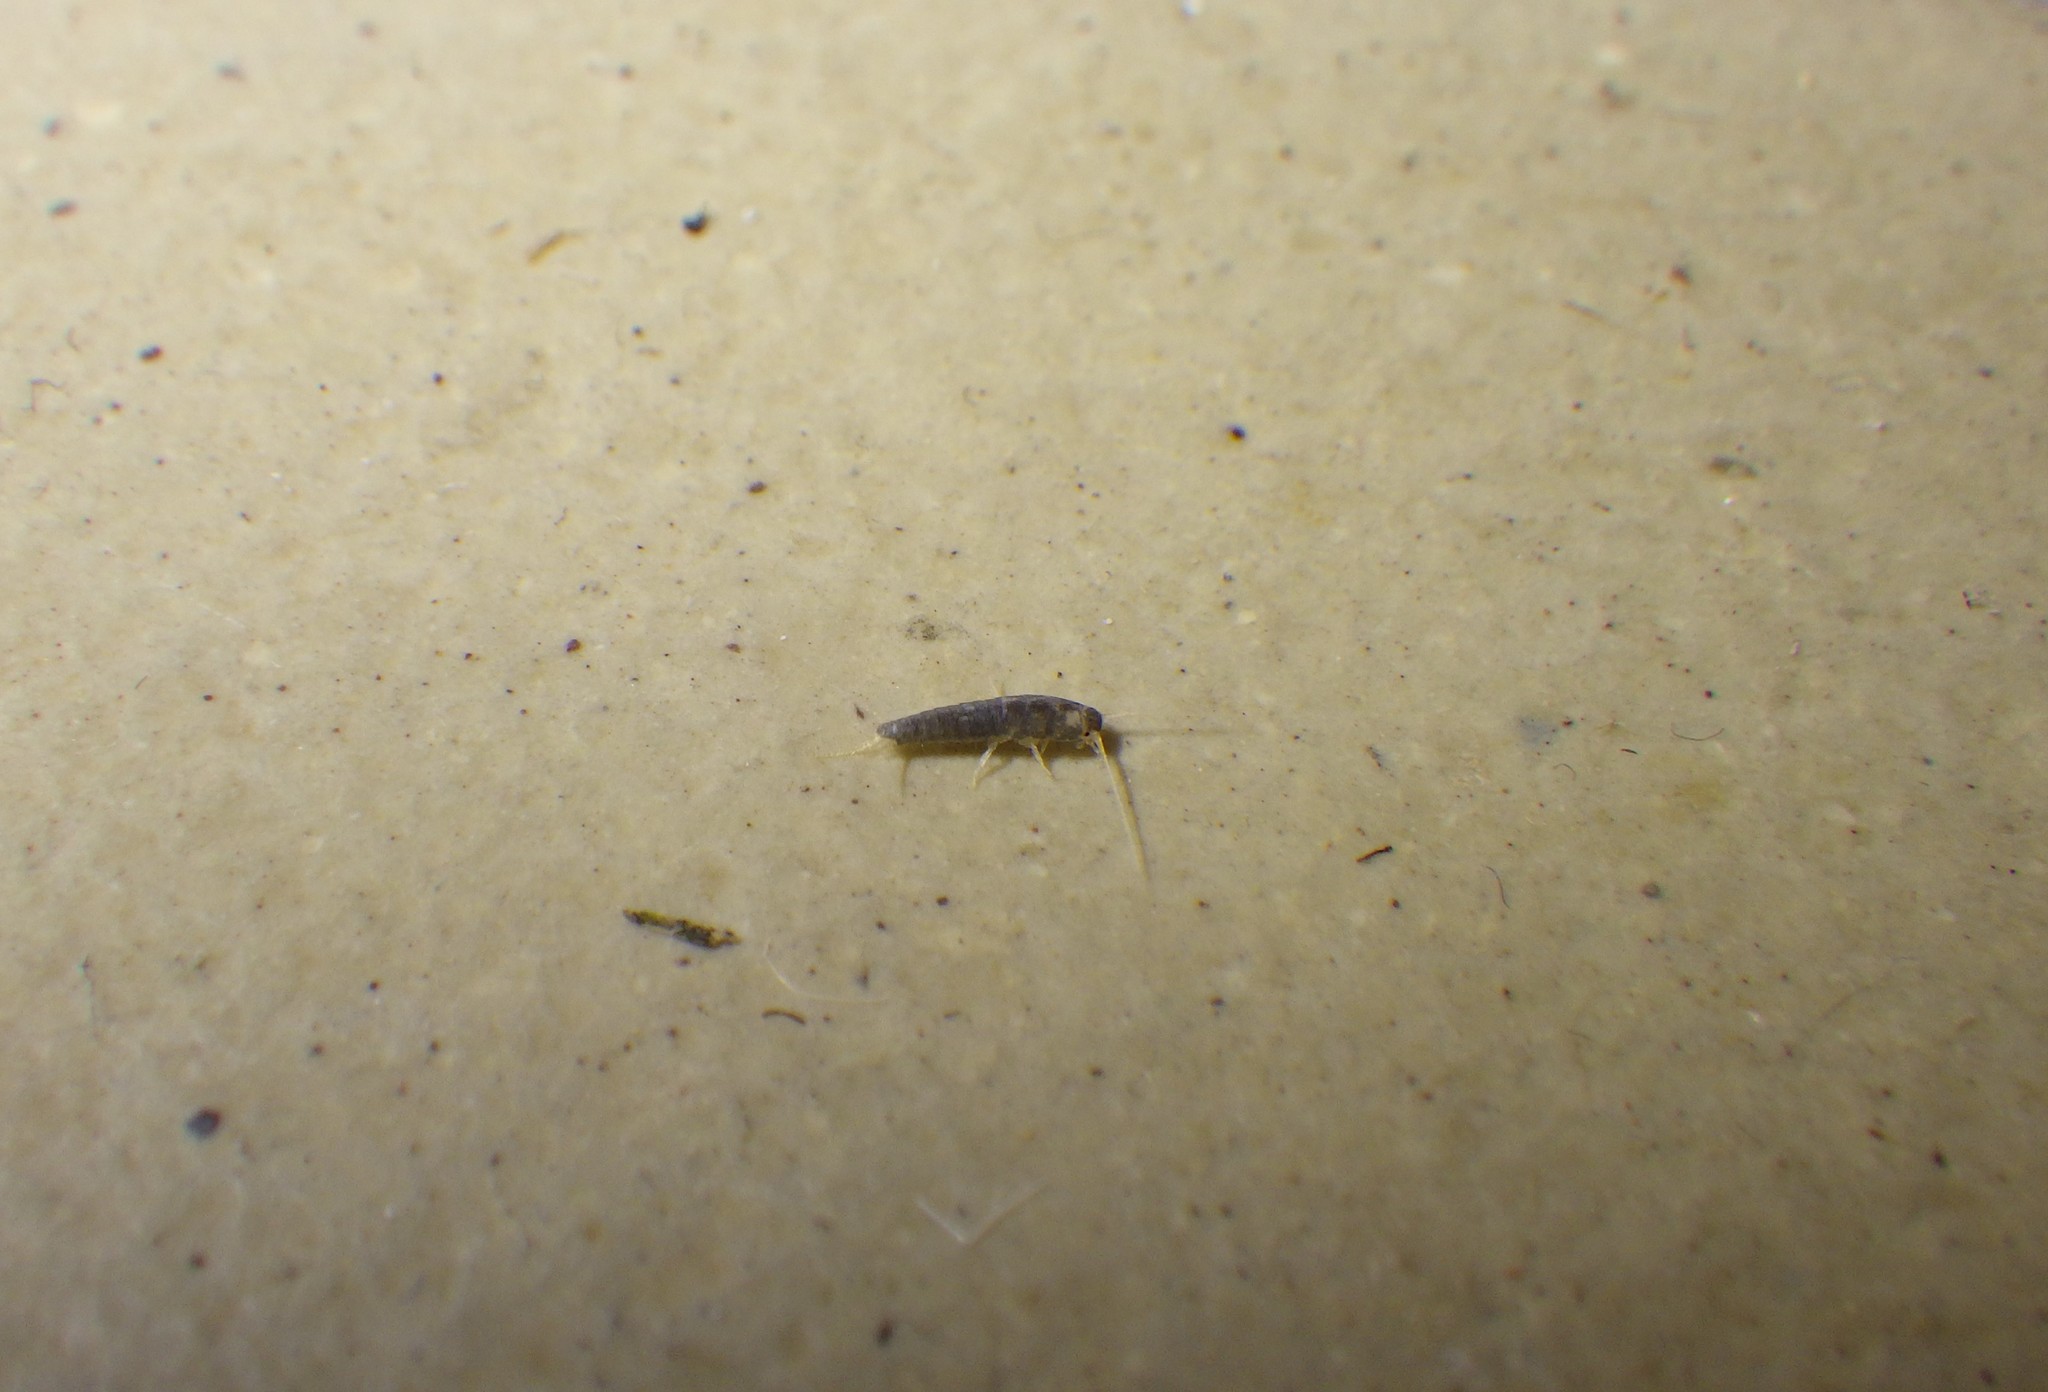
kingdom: Animalia
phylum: Arthropoda
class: Insecta
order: Zygentoma
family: Lepismatidae
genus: Lepisma
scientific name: Lepisma saccharinum
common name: Silverfish
